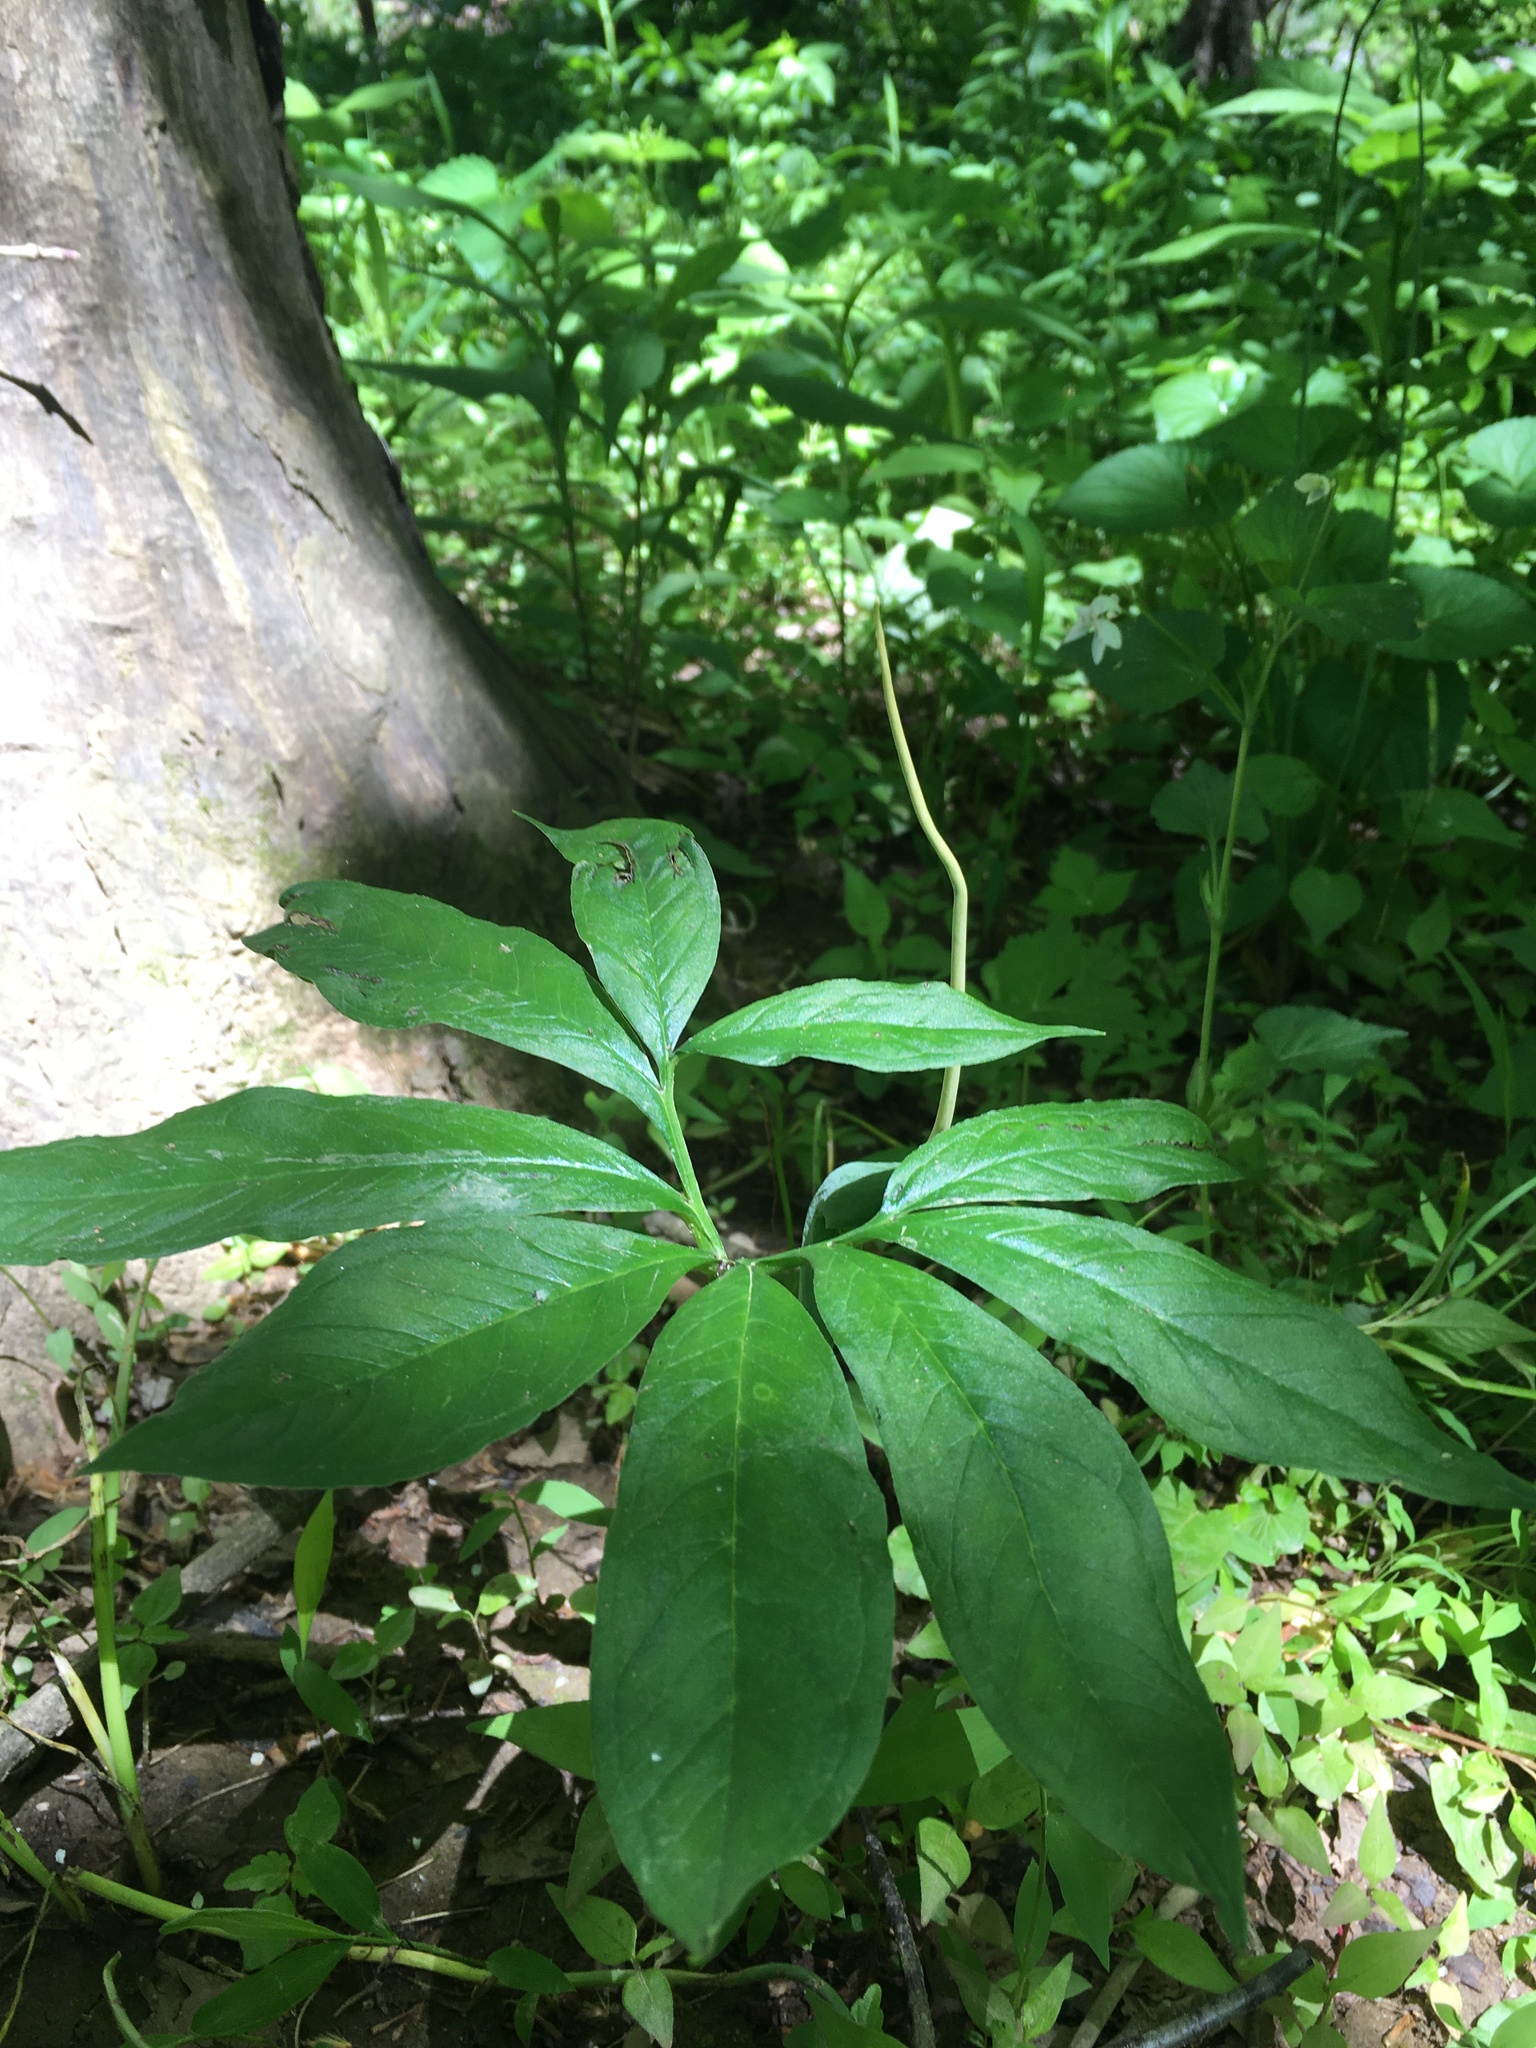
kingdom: Plantae
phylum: Tracheophyta
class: Liliopsida
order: Alismatales
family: Araceae
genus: Arisaema
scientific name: Arisaema dracontium
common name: Dragon-arum
